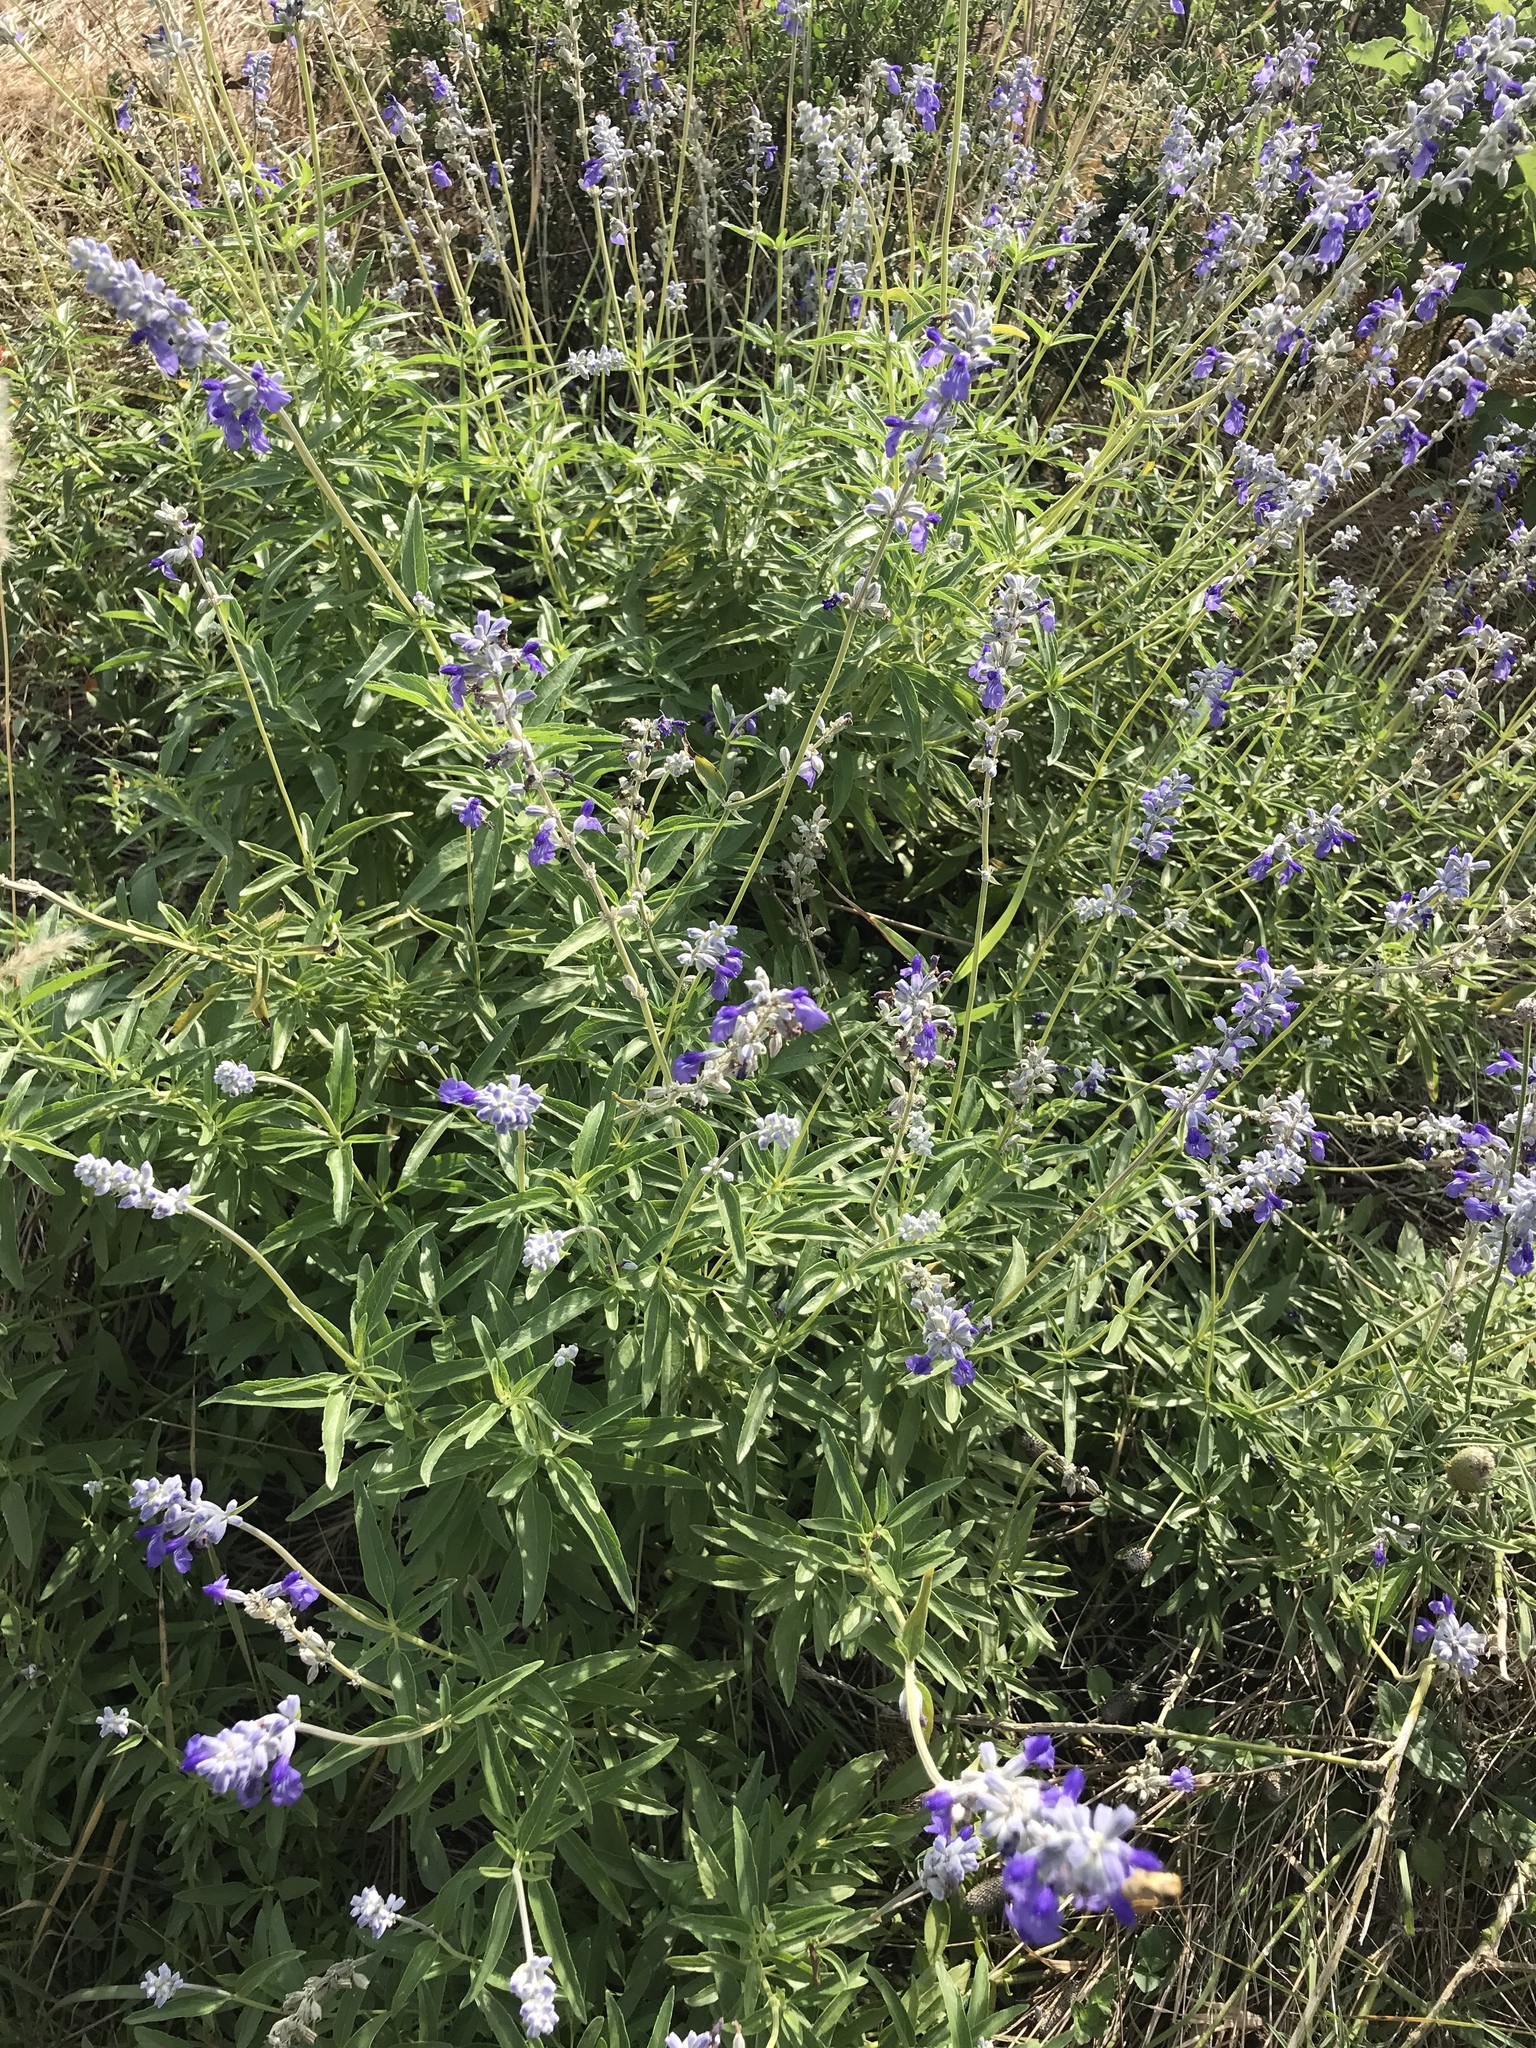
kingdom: Plantae
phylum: Tracheophyta
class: Magnoliopsida
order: Lamiales
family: Lamiaceae
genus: Salvia
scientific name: Salvia farinacea
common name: Mealy sage
